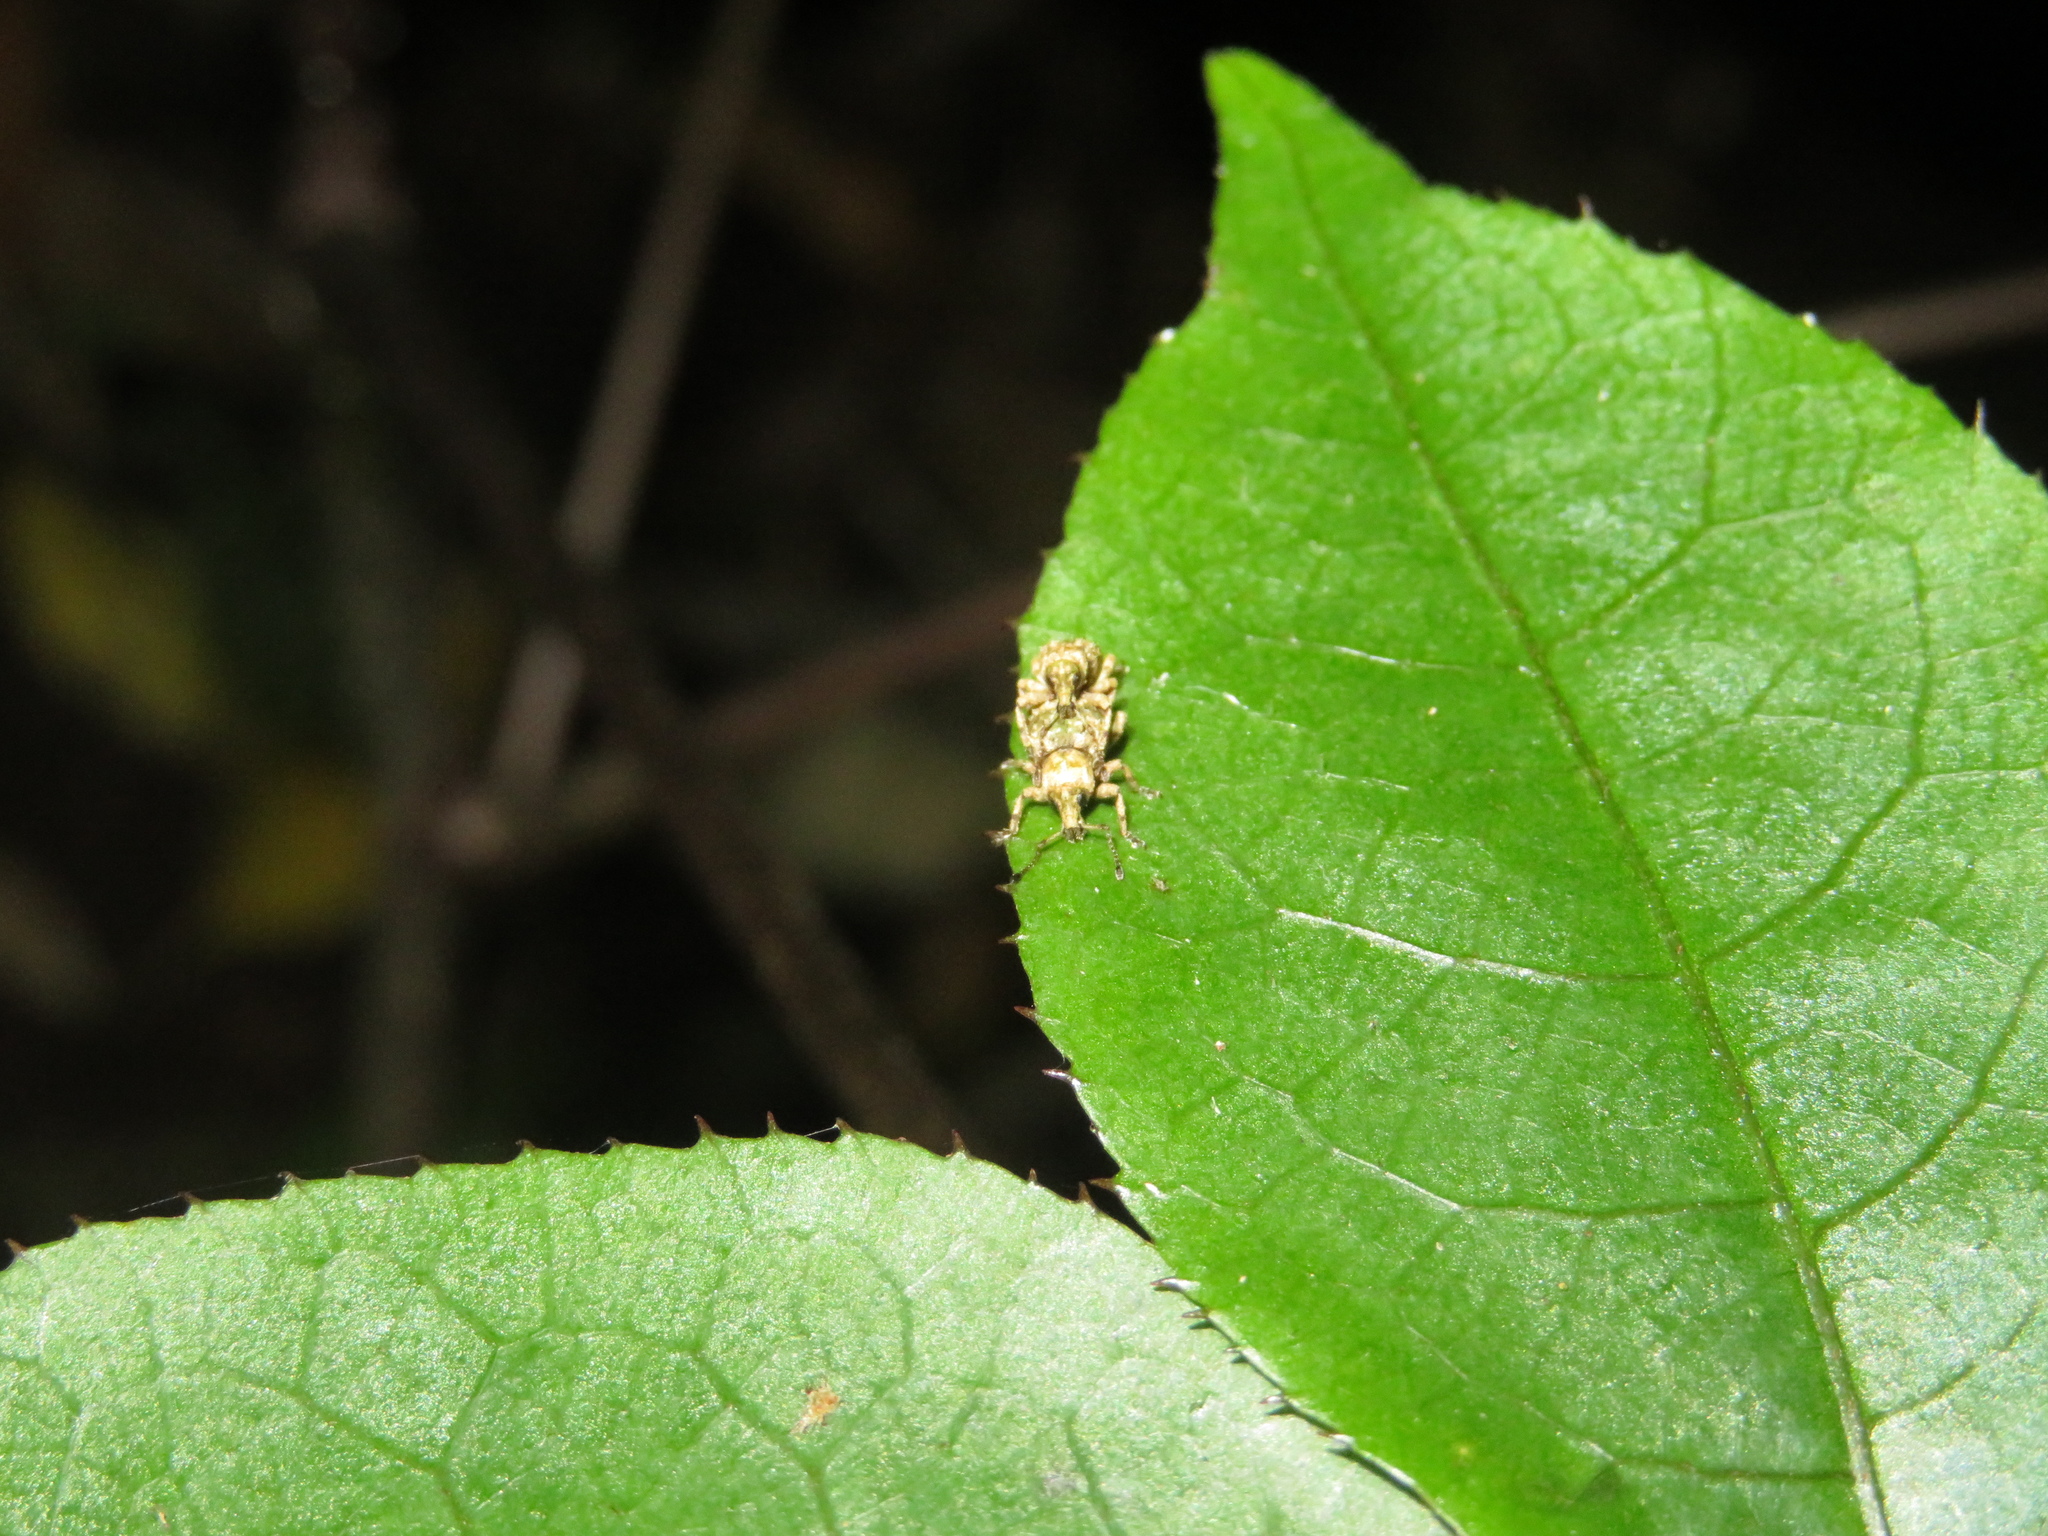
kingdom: Animalia
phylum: Arthropoda
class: Insecta
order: Coleoptera
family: Curculionidae
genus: Brachyolus
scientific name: Brachyolus punctatus
